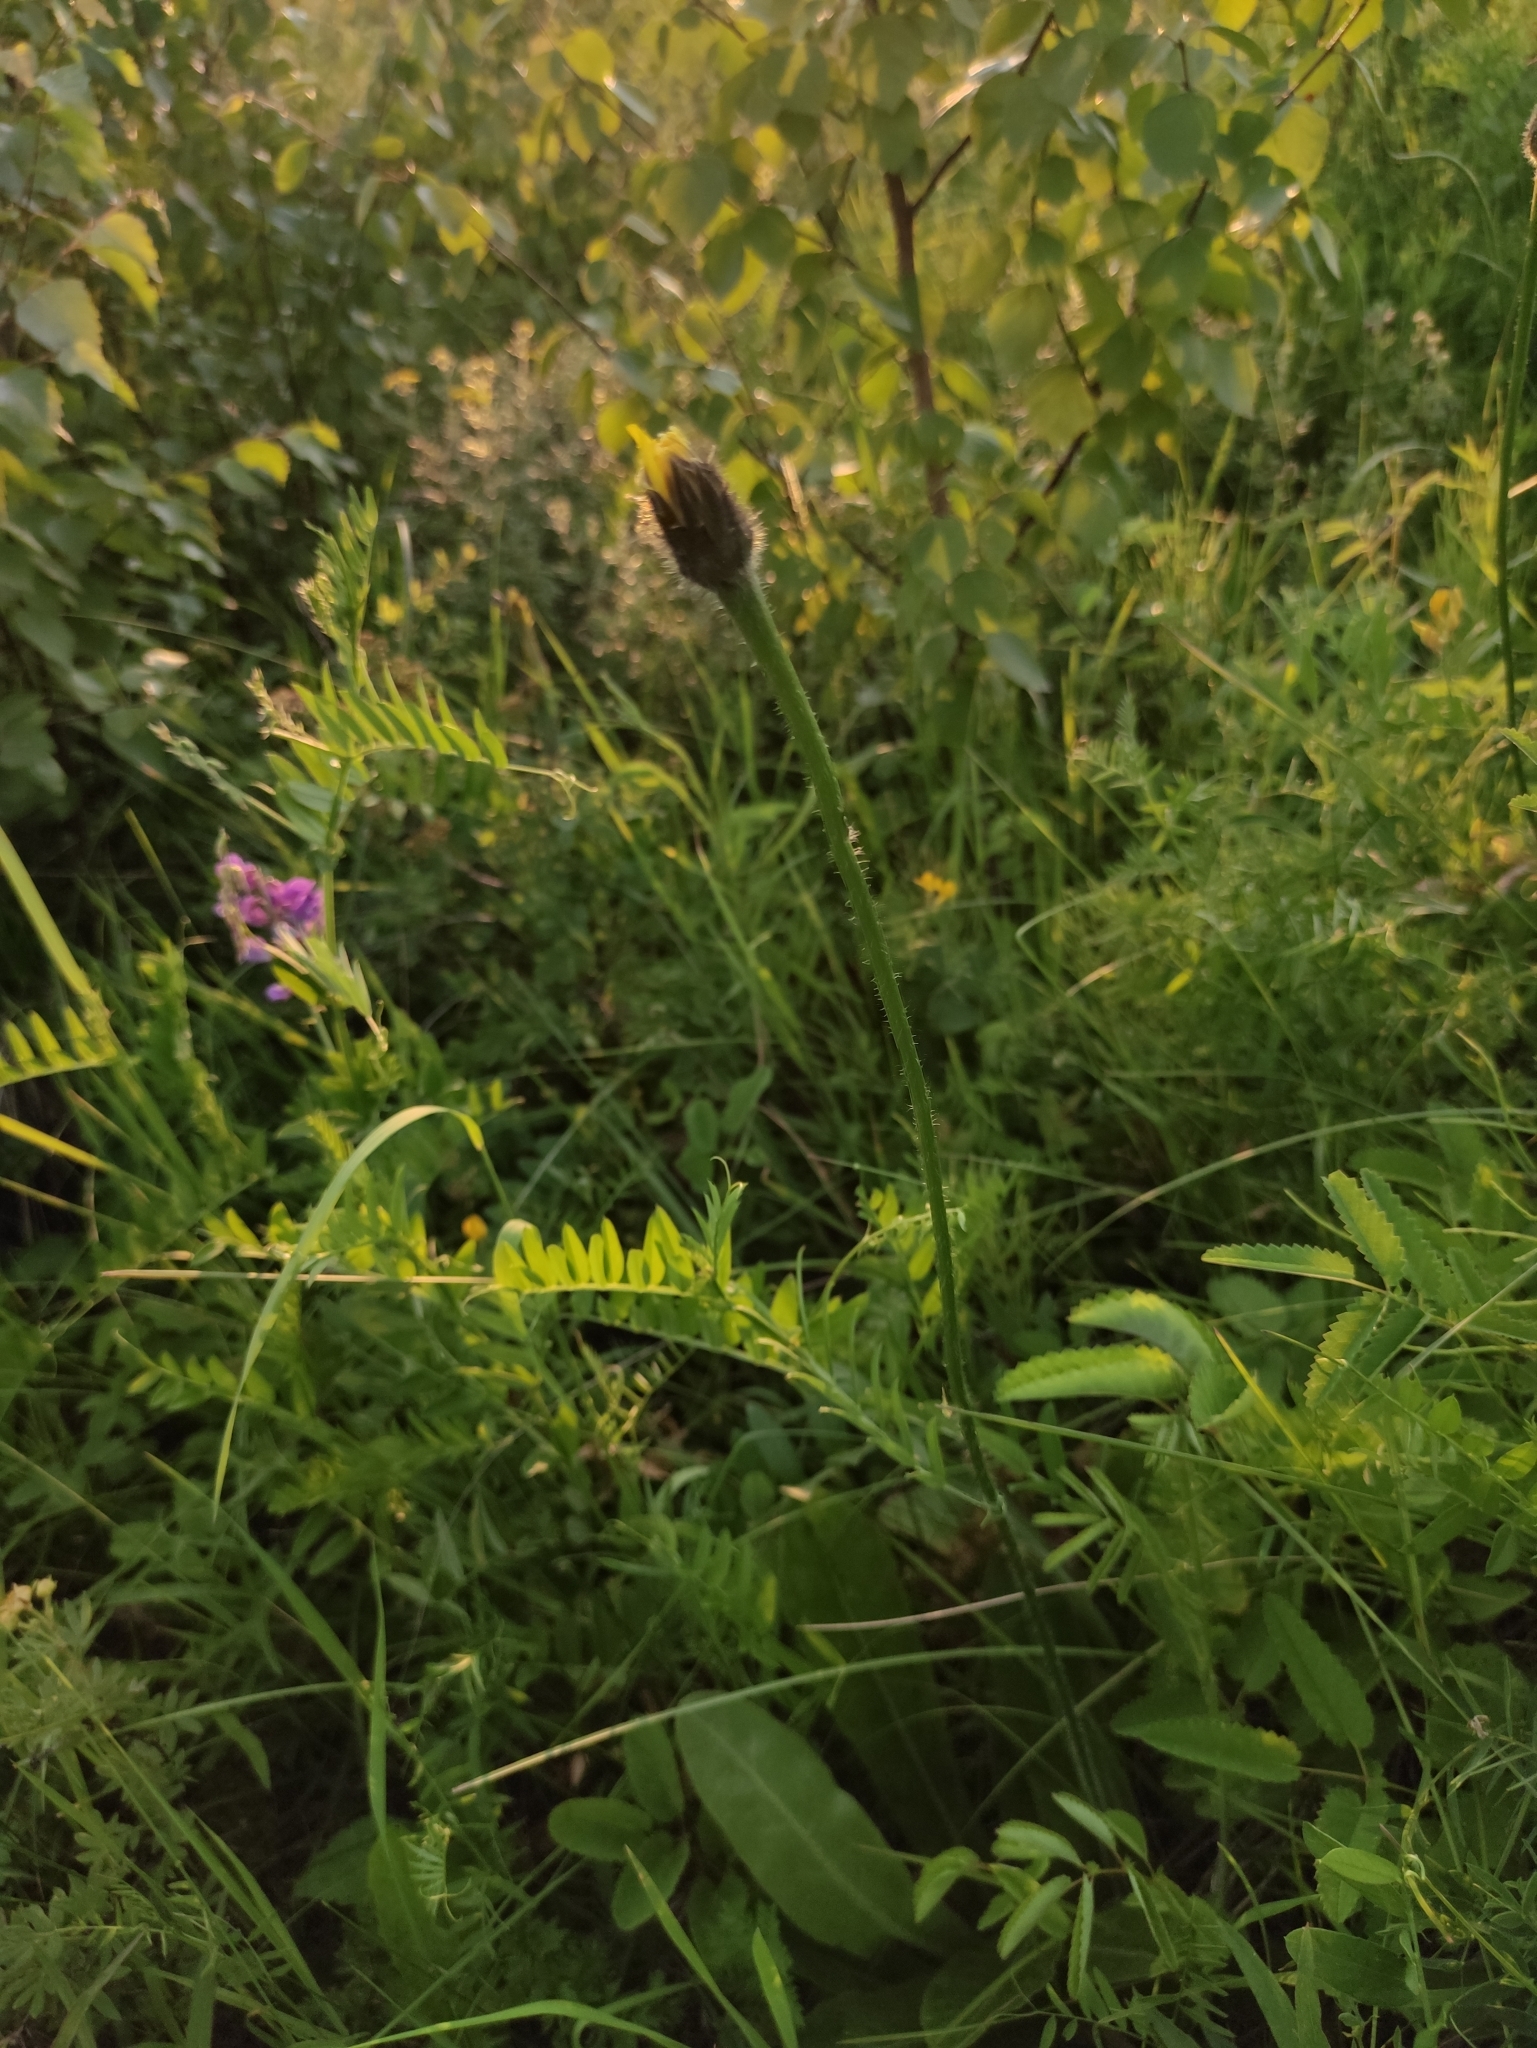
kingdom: Plantae
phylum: Tracheophyta
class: Magnoliopsida
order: Asterales
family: Asteraceae
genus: Trommsdorffia
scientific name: Trommsdorffia maculata
